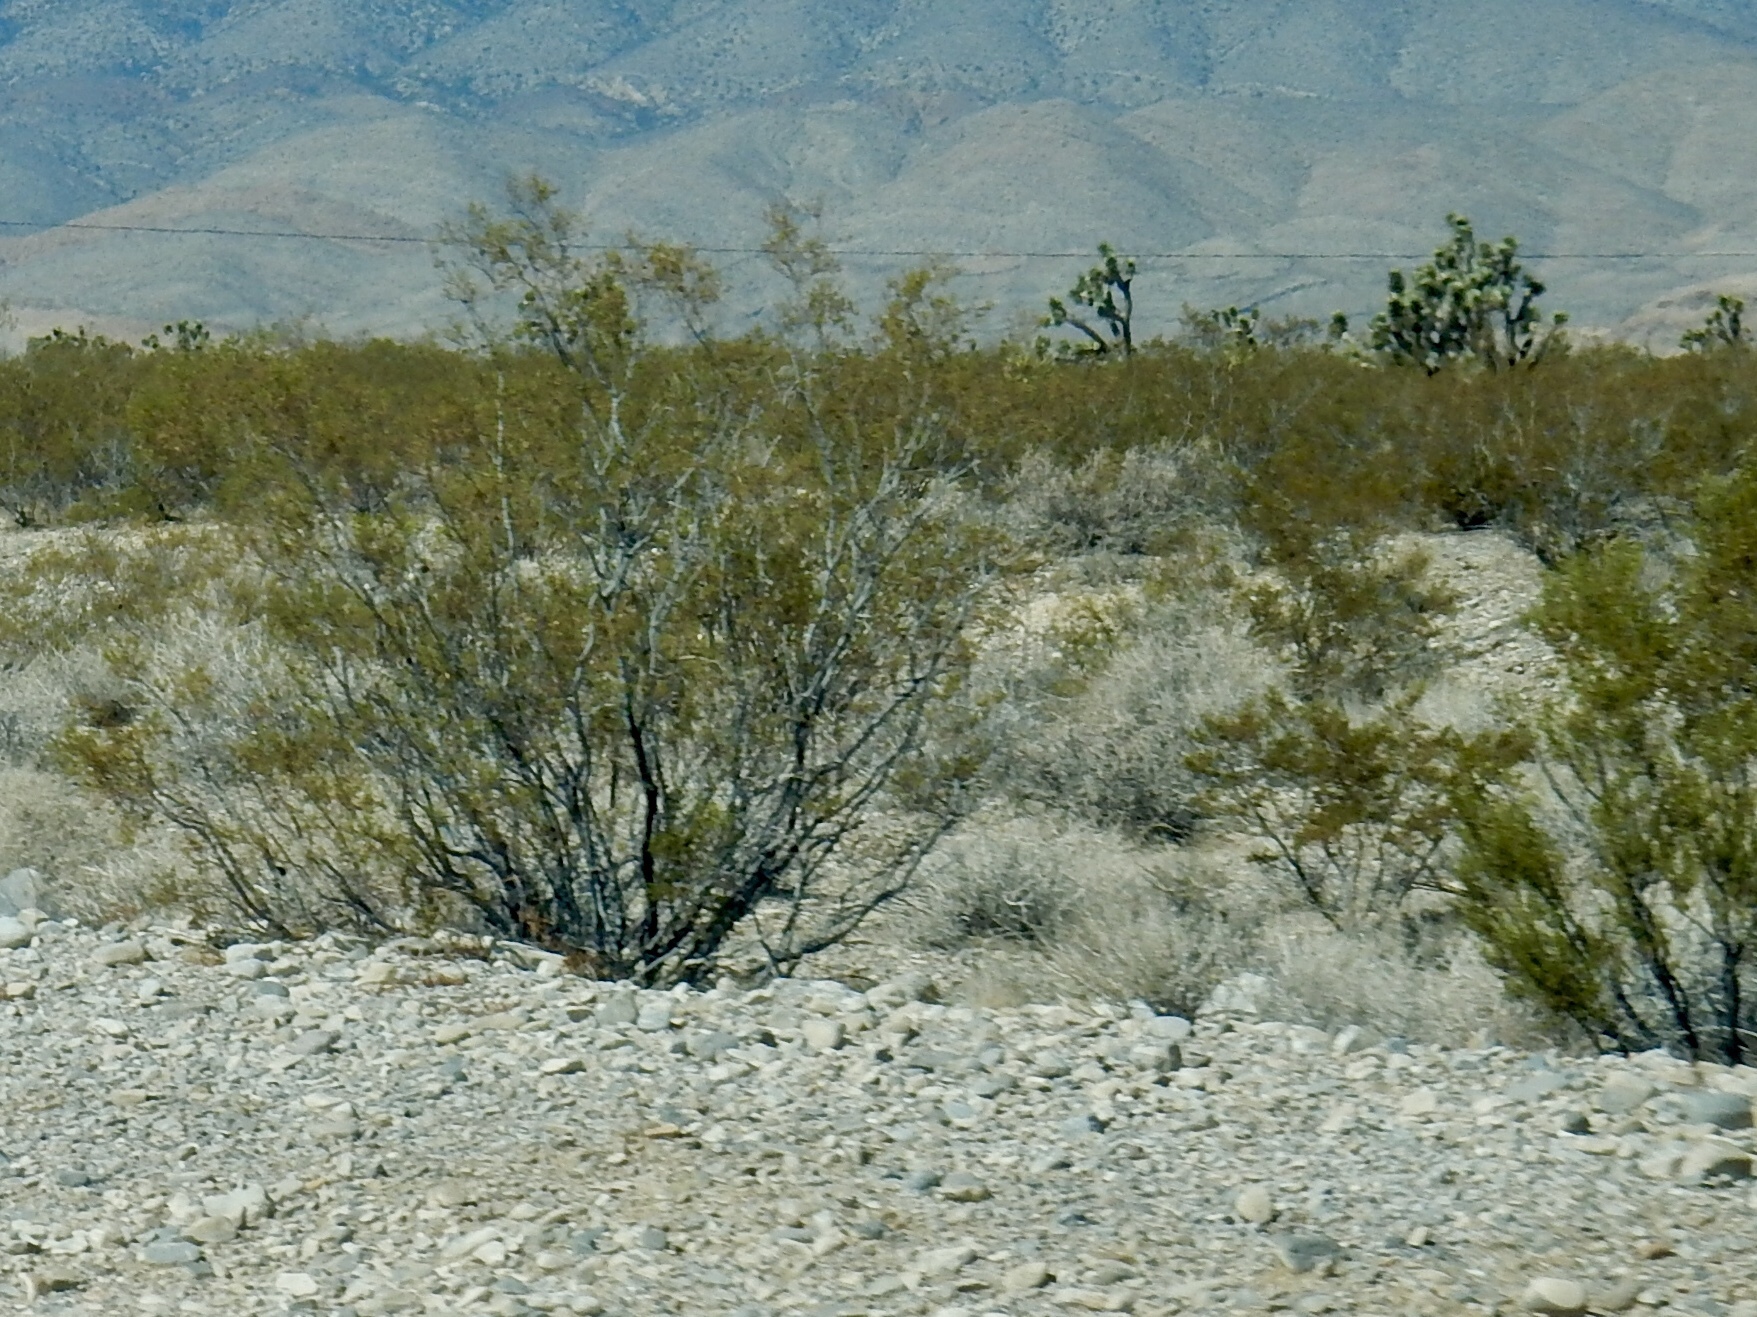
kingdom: Plantae
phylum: Tracheophyta
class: Magnoliopsida
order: Zygophyllales
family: Zygophyllaceae
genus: Larrea
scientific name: Larrea tridentata
